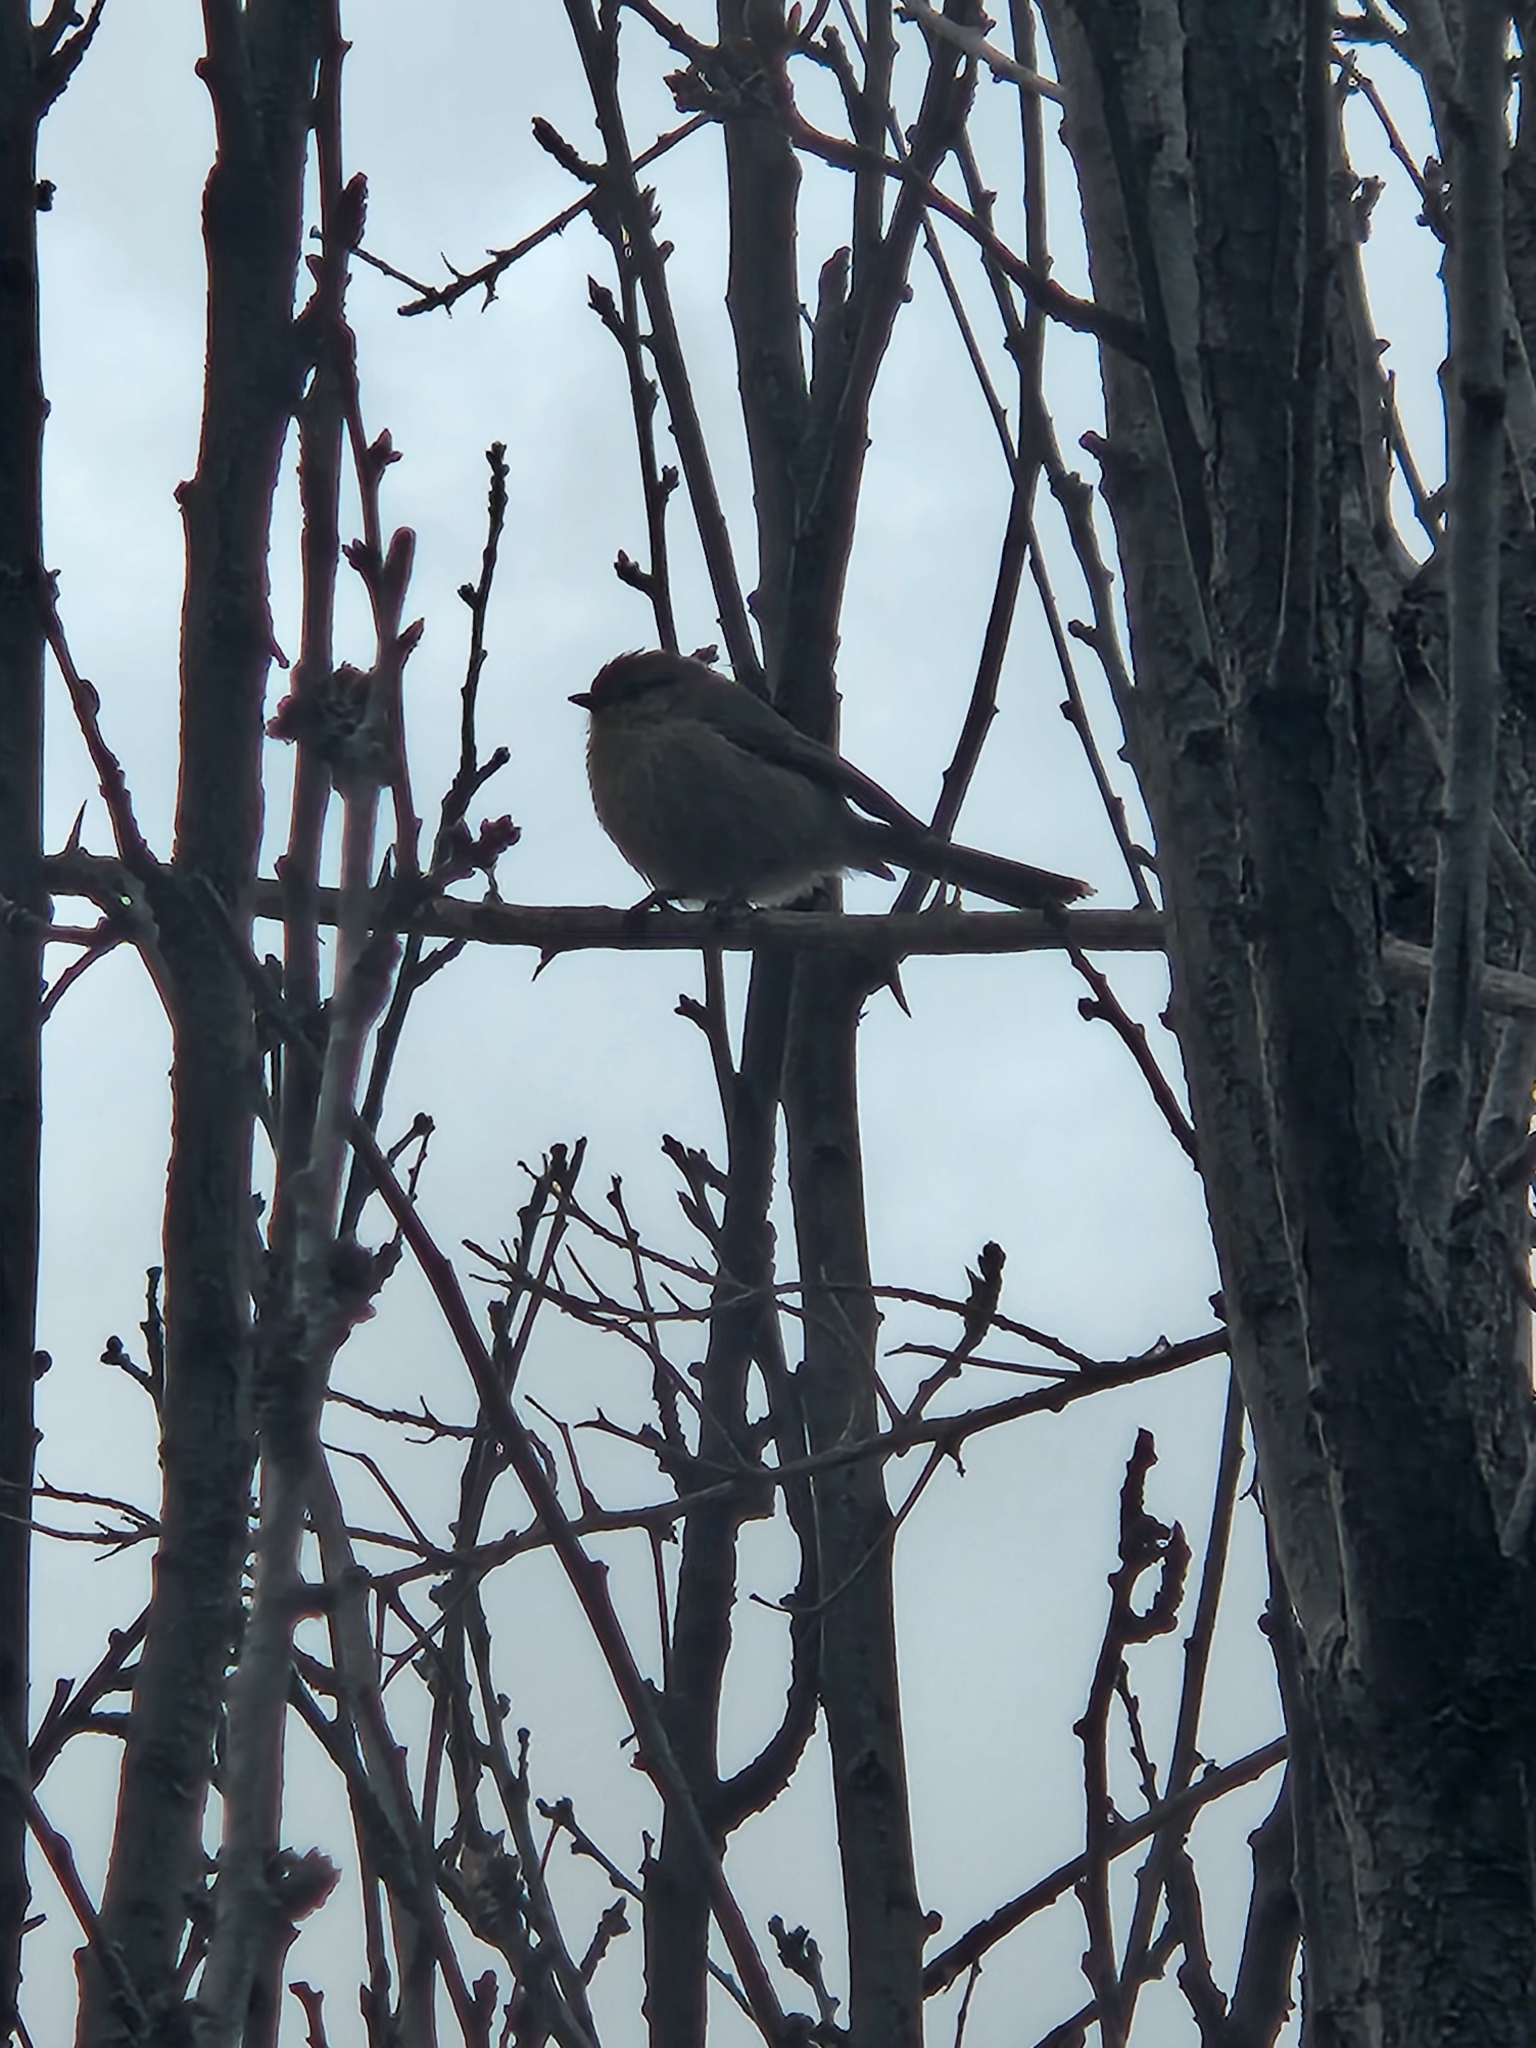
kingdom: Animalia
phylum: Chordata
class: Aves
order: Passeriformes
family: Aegithalidae
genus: Psaltriparus
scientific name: Psaltriparus minimus
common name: American bushtit
